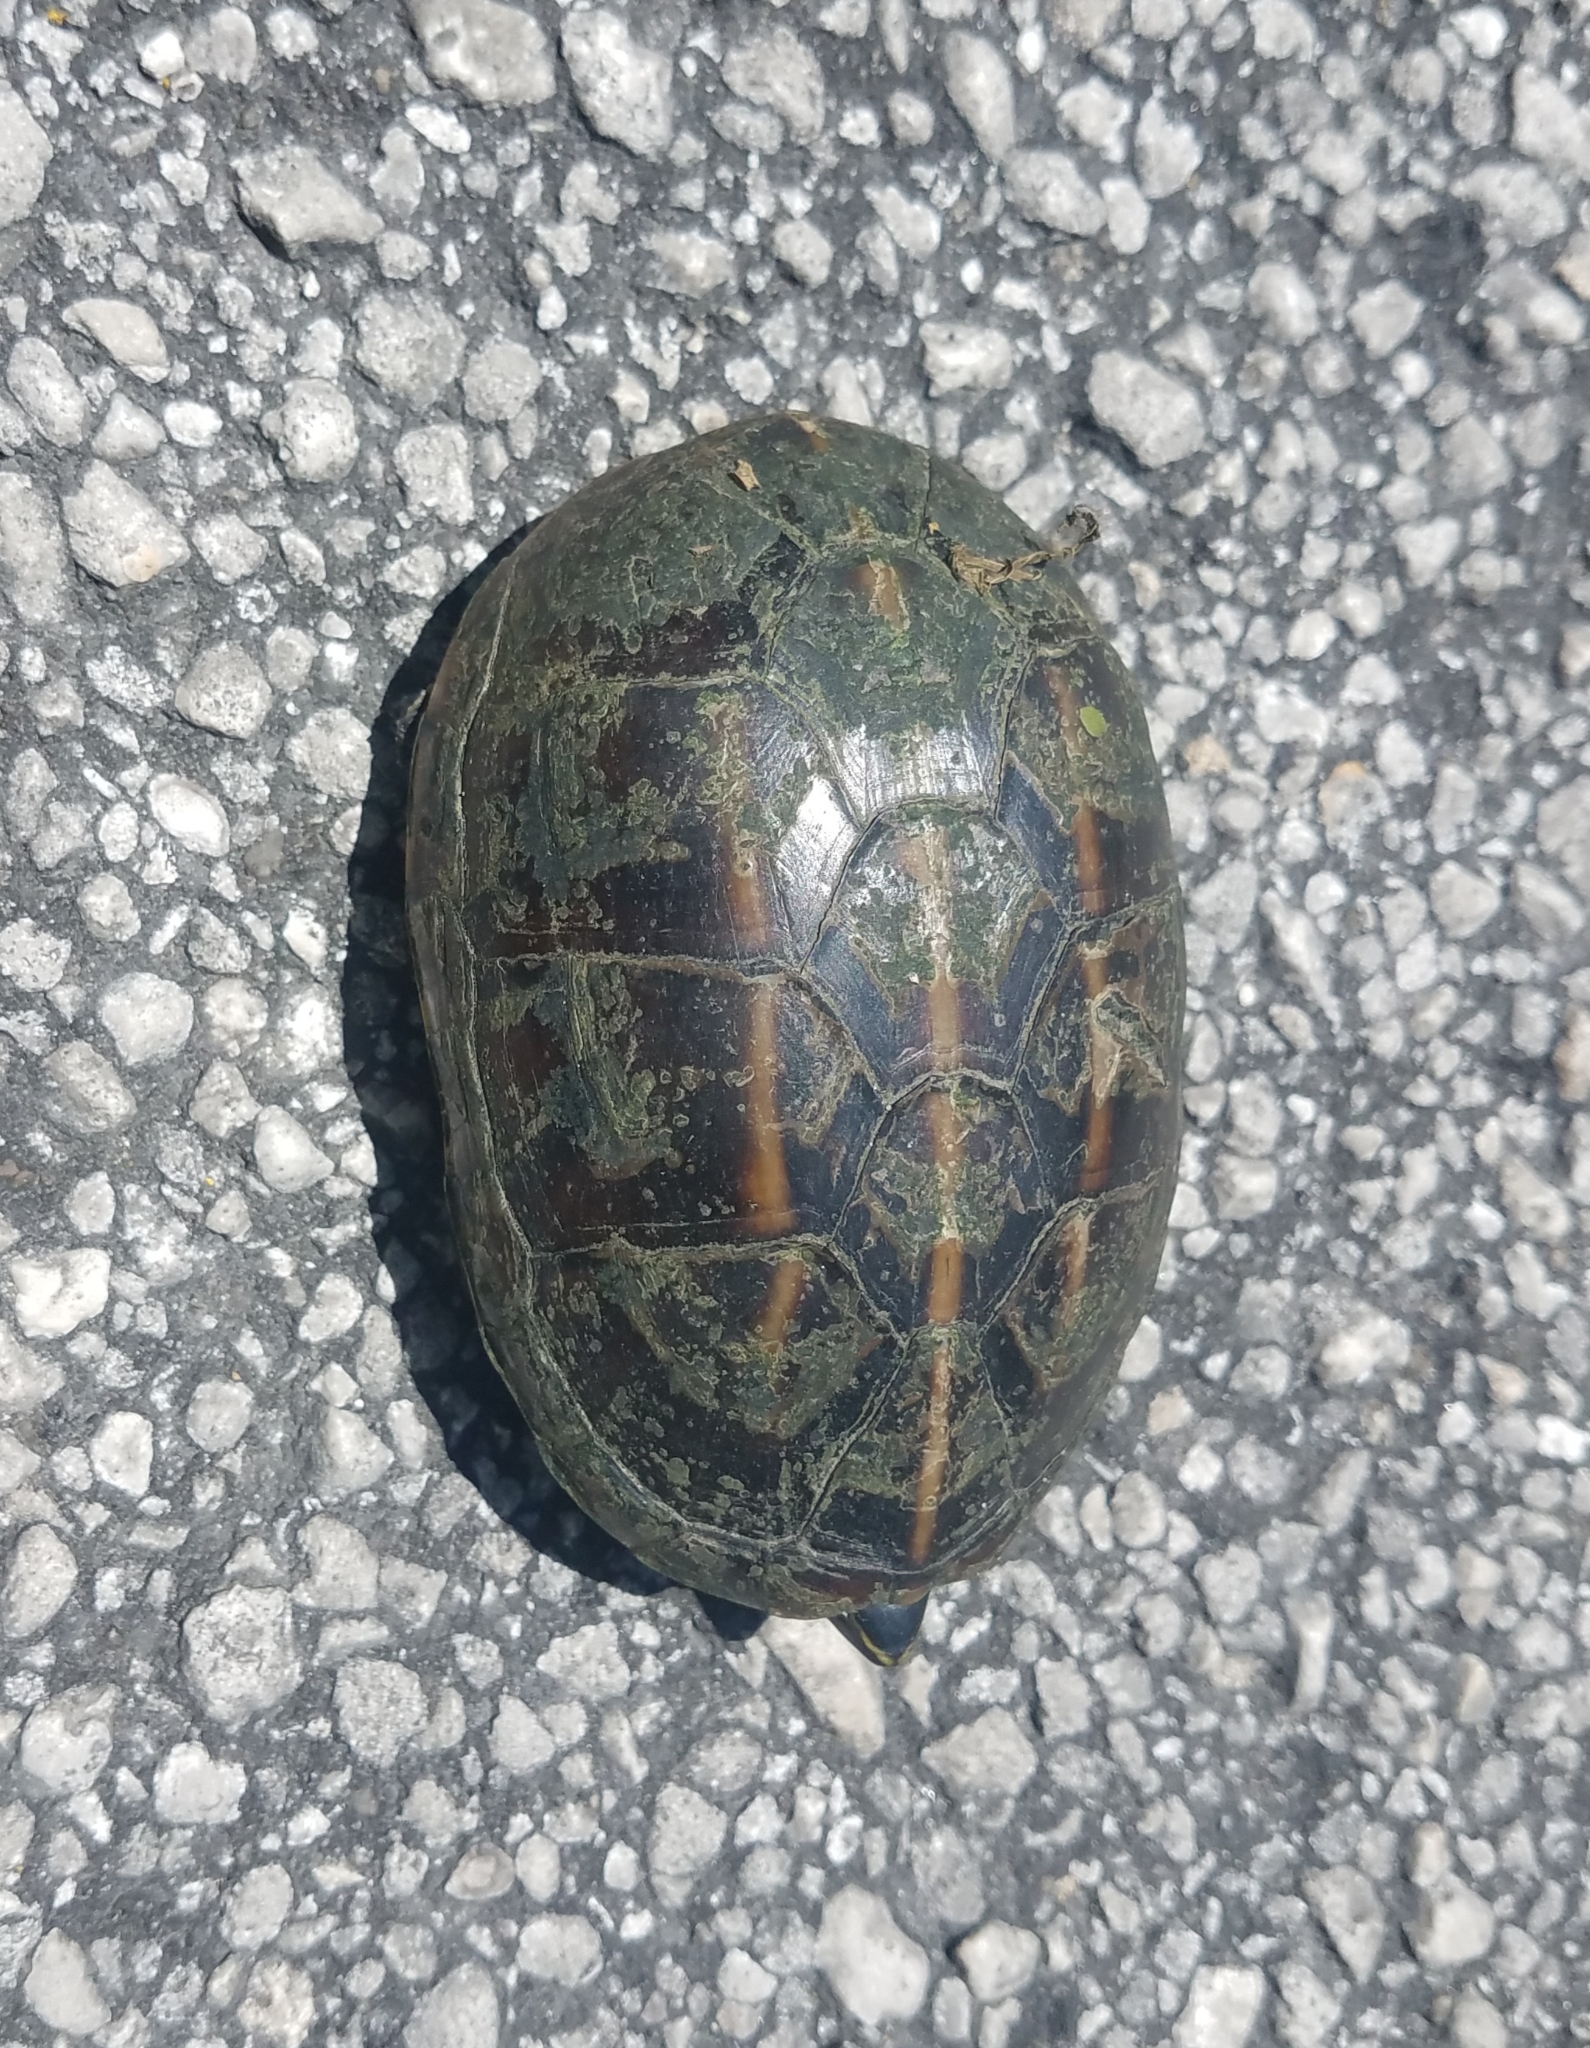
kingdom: Animalia
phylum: Chordata
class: Testudines
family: Kinosternidae
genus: Kinosternon
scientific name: Kinosternon baurii
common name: Striped mud turtle
